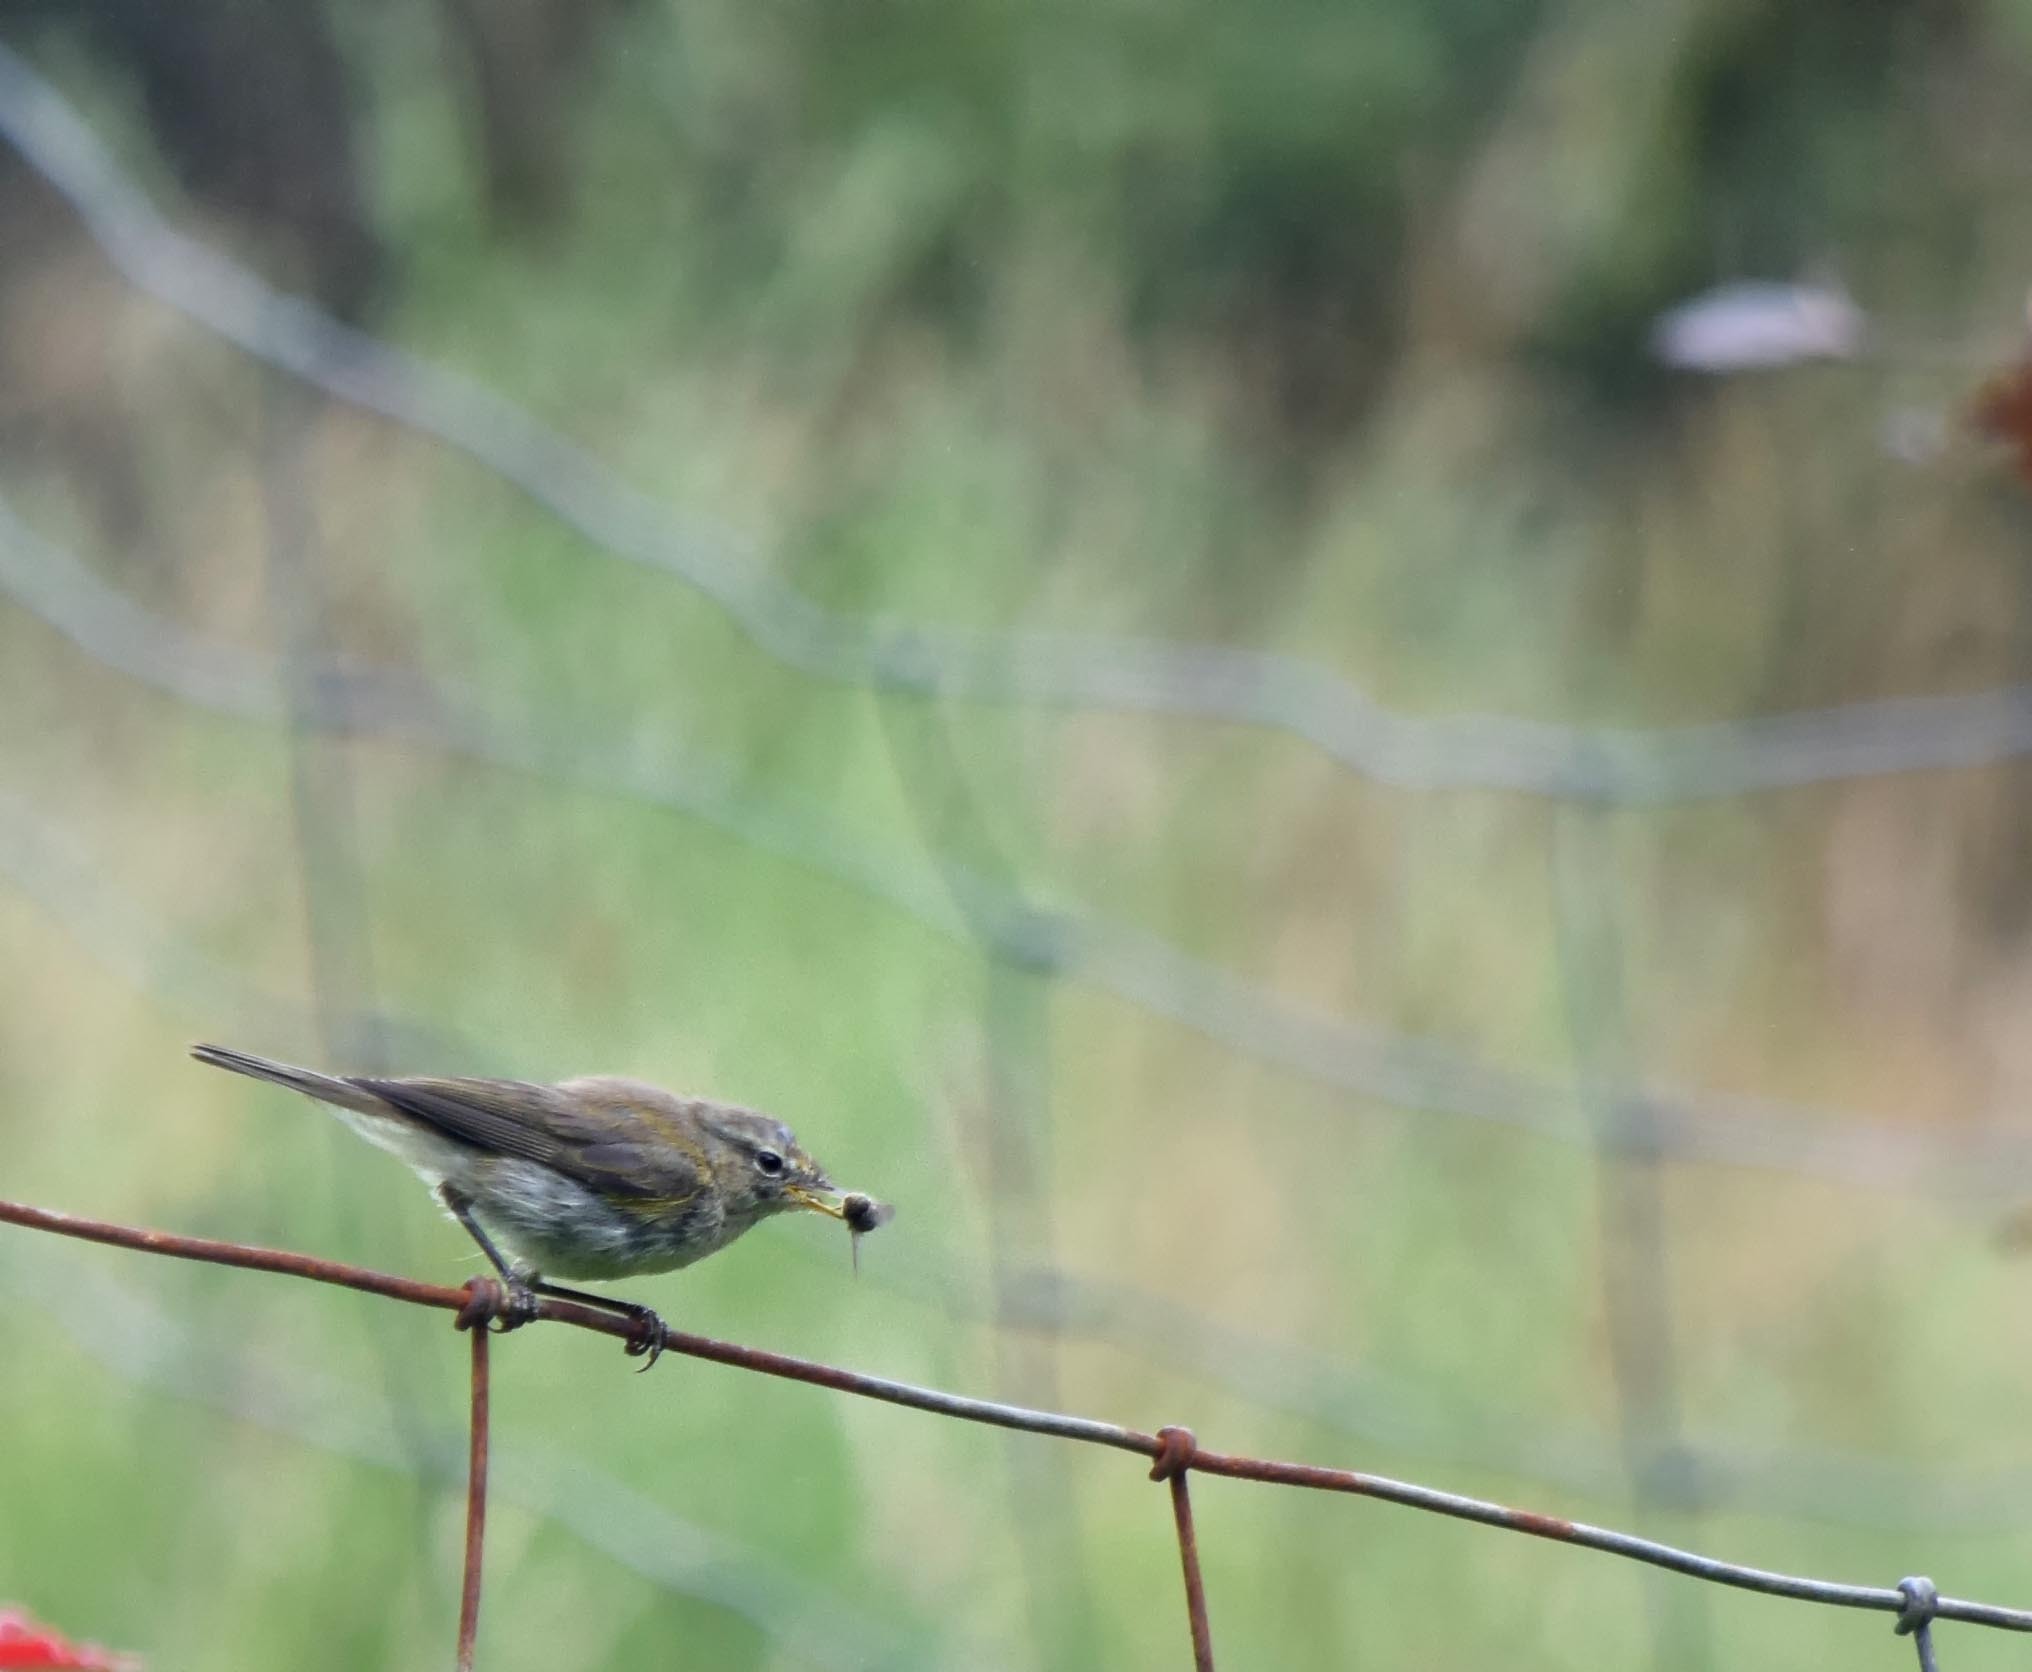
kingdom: Animalia
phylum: Chordata
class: Aves
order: Passeriformes
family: Phylloscopidae
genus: Phylloscopus
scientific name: Phylloscopus collybita
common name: Common chiffchaff
